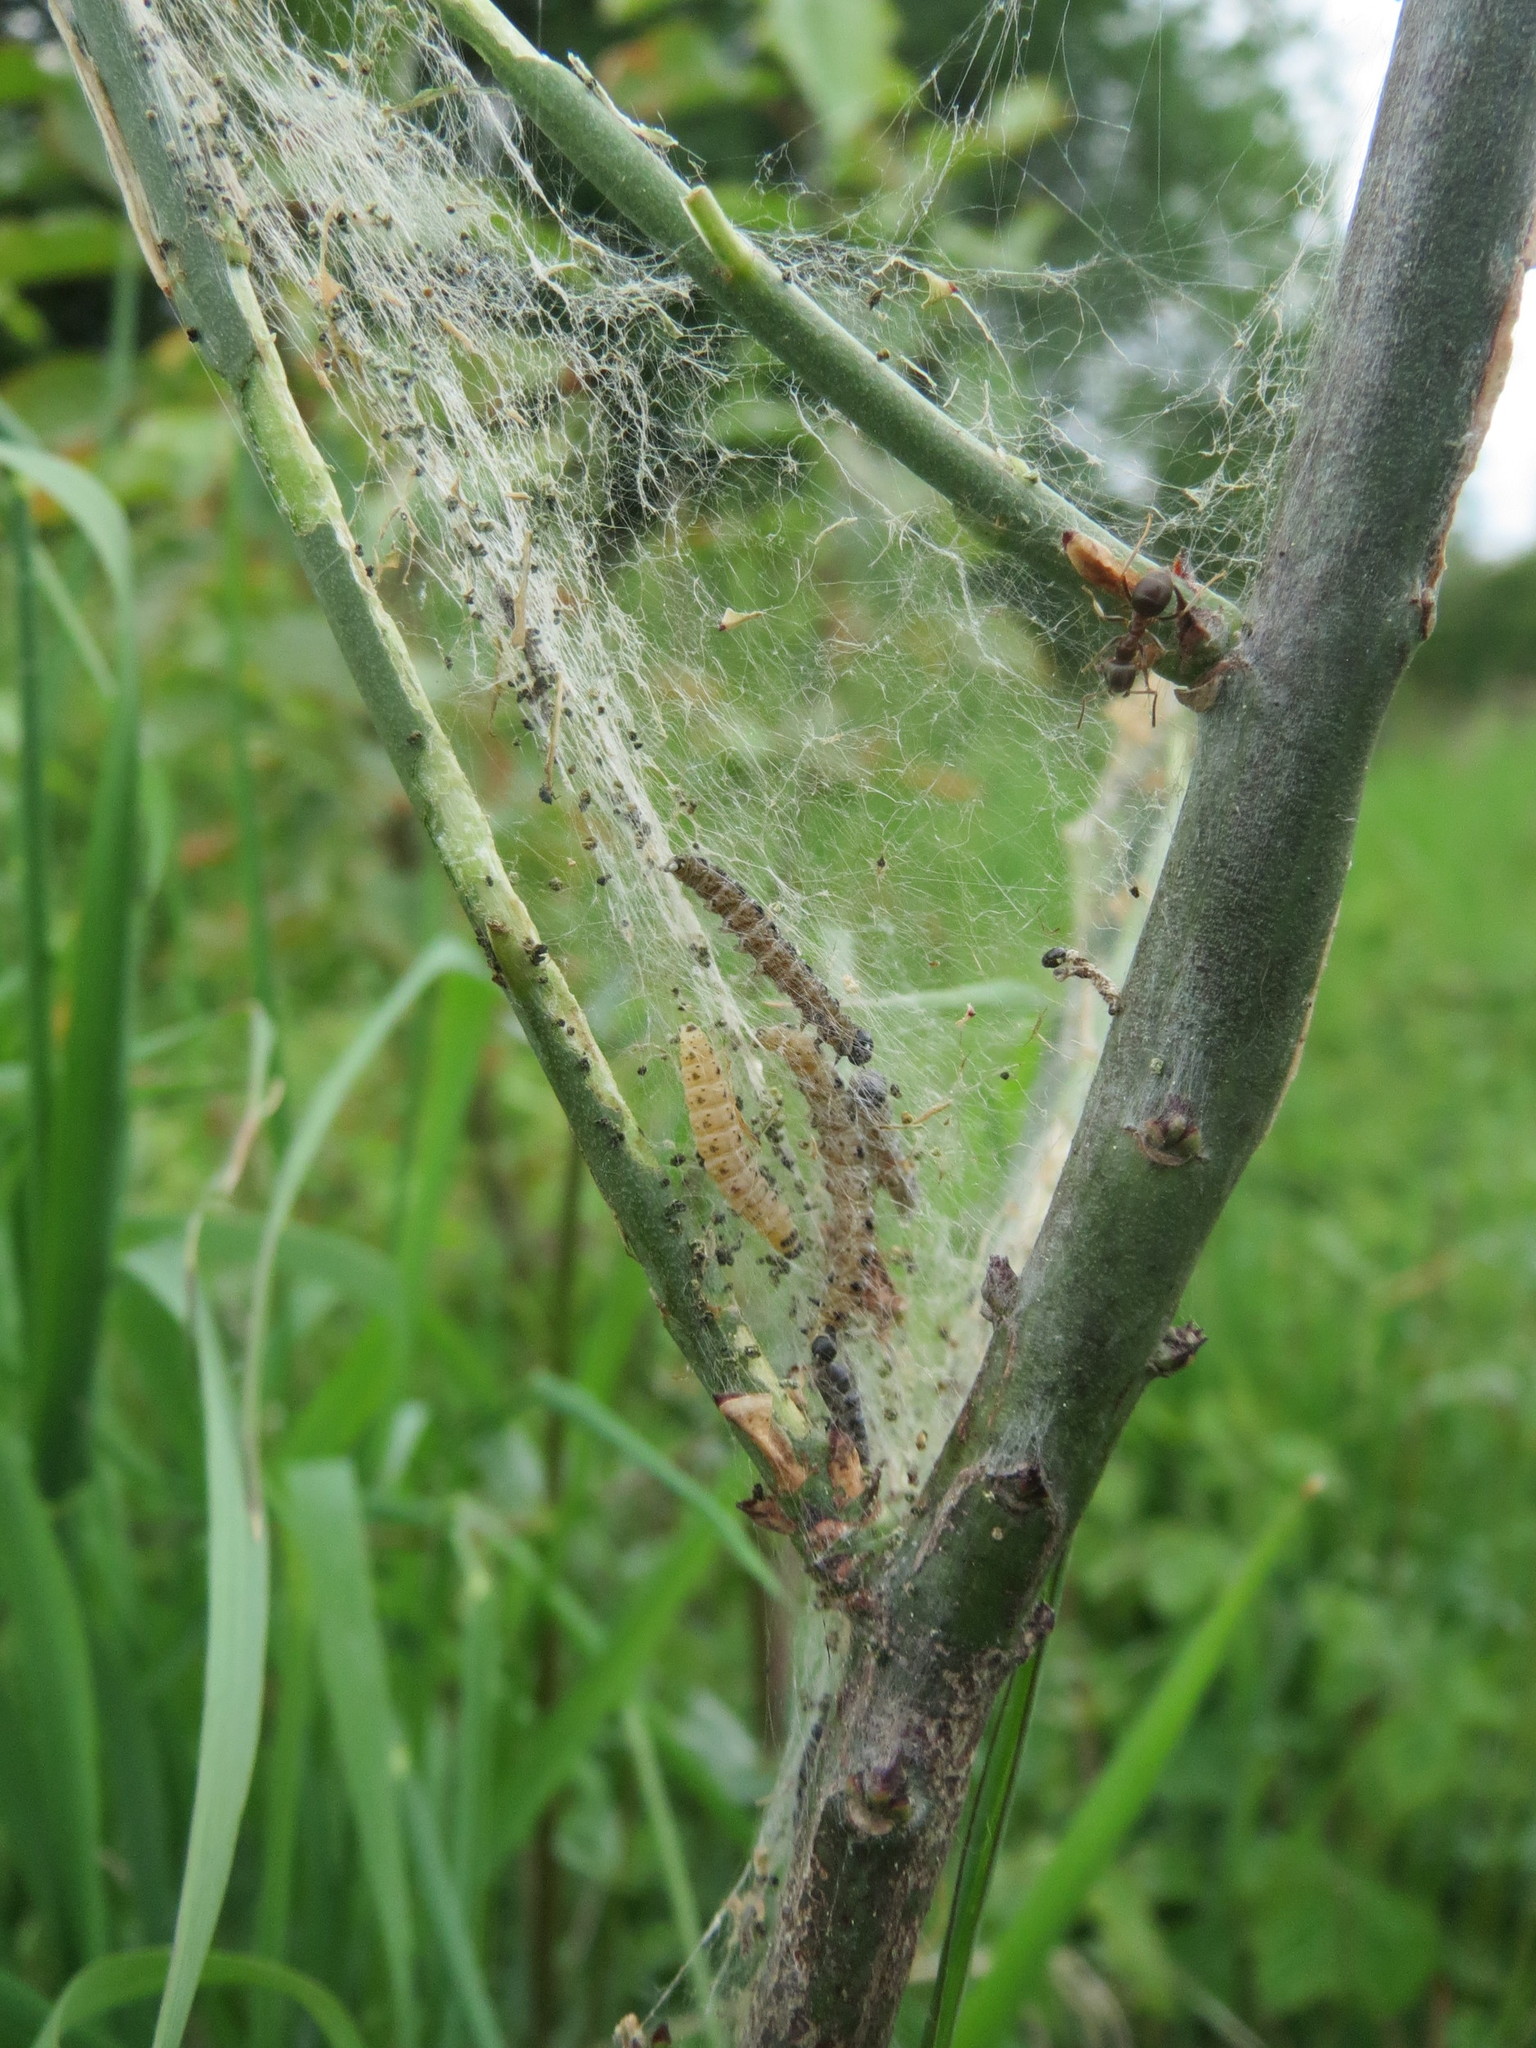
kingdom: Plantae
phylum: Tracheophyta
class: Magnoliopsida
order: Celastrales
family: Celastraceae
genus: Euonymus
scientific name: Euonymus europaeus
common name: Spindle
